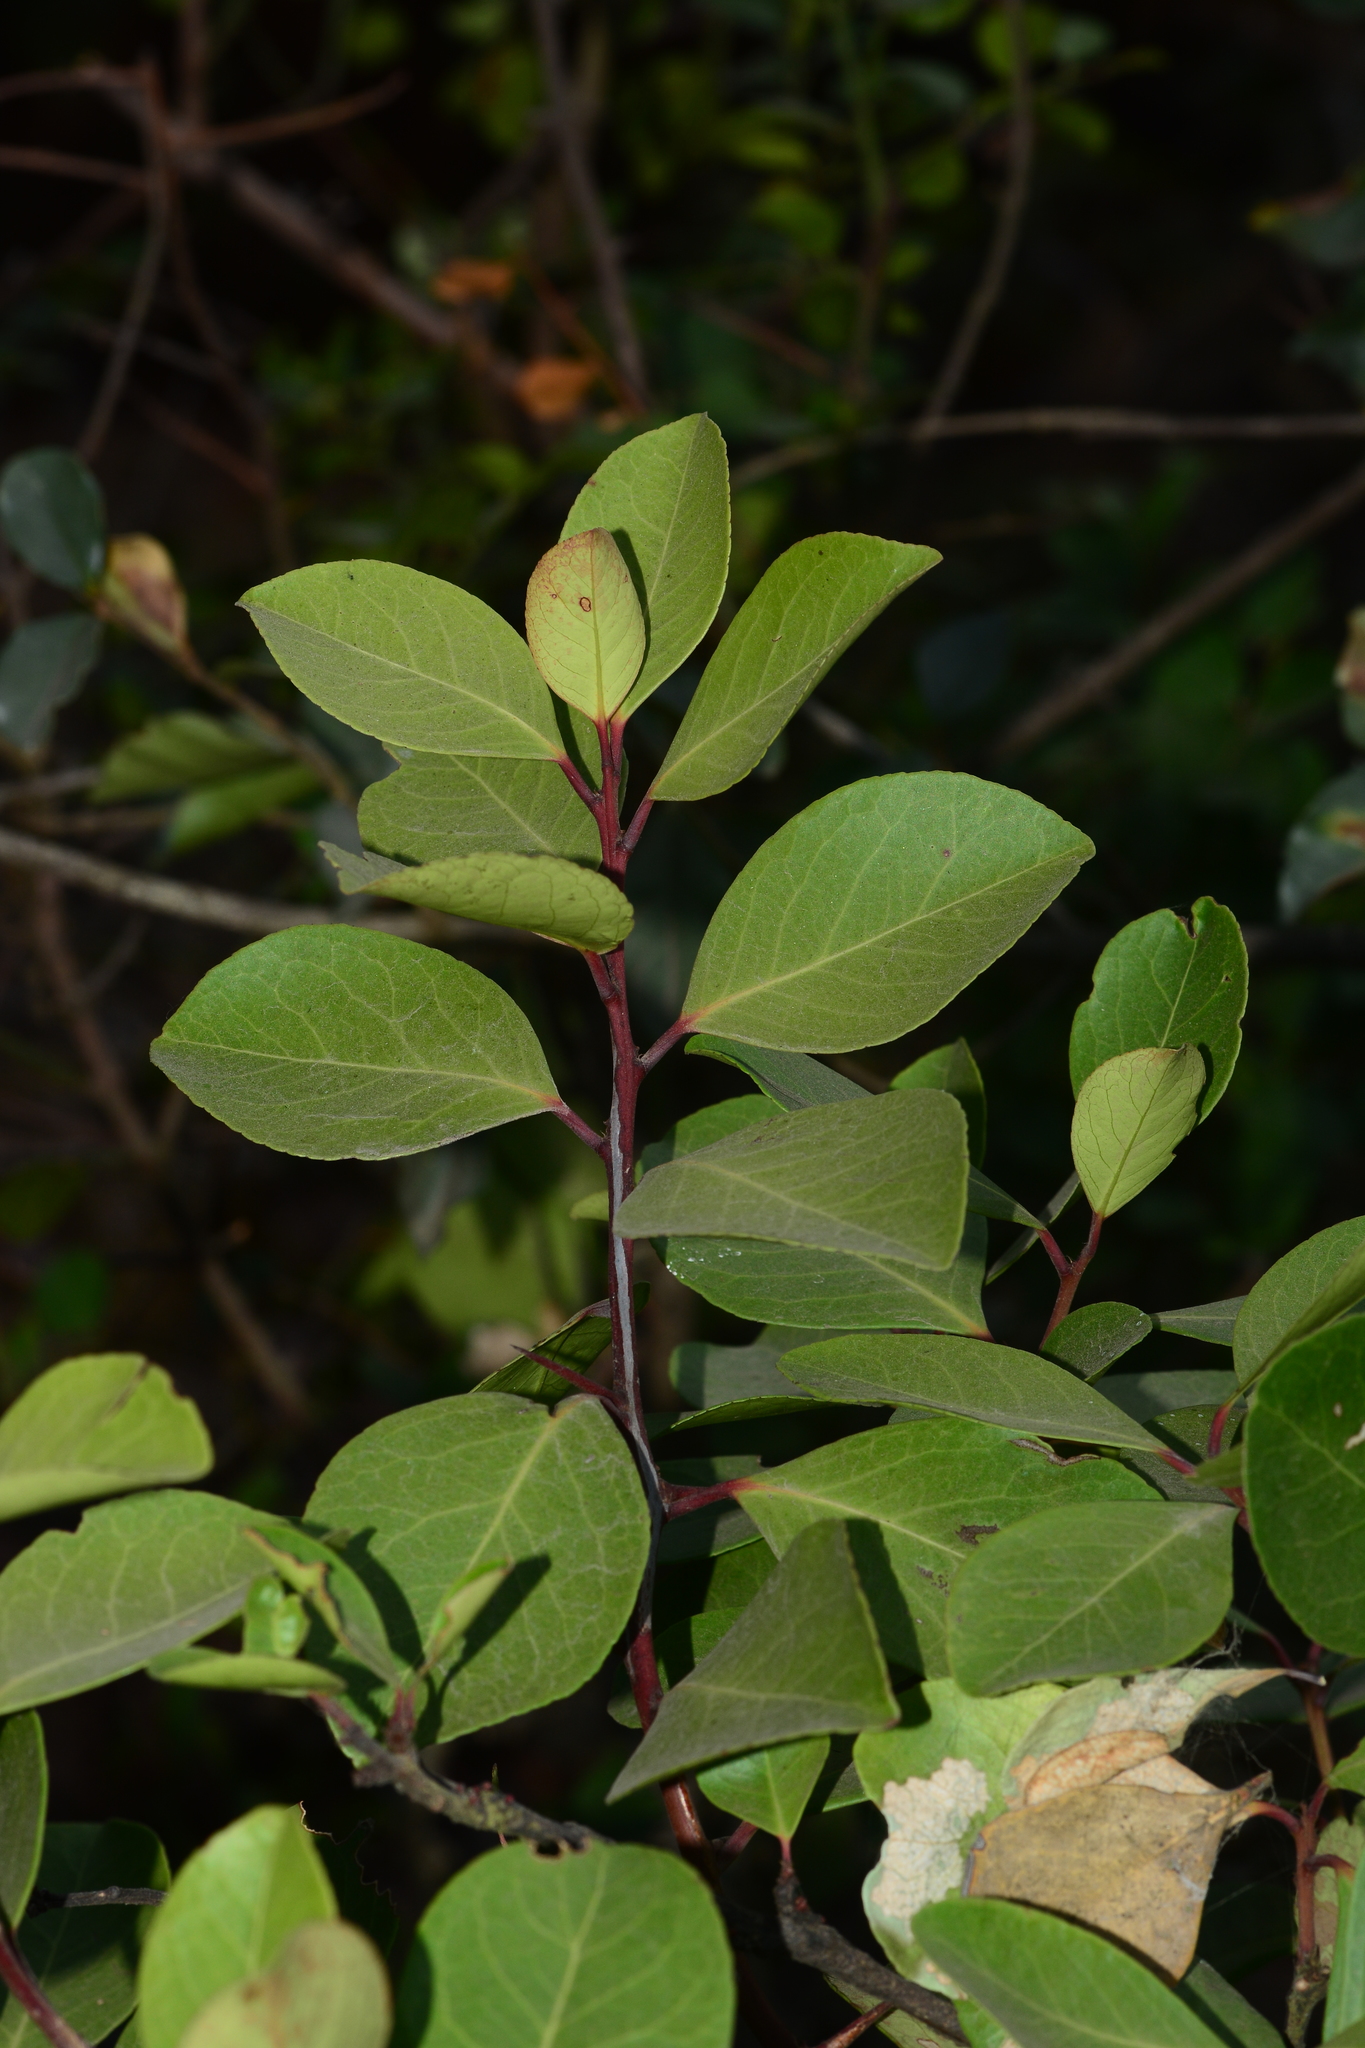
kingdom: Plantae
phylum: Tracheophyta
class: Magnoliopsida
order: Celastrales
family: Celastraceae
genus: Gymnosporia
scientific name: Gymnosporia rothiana
